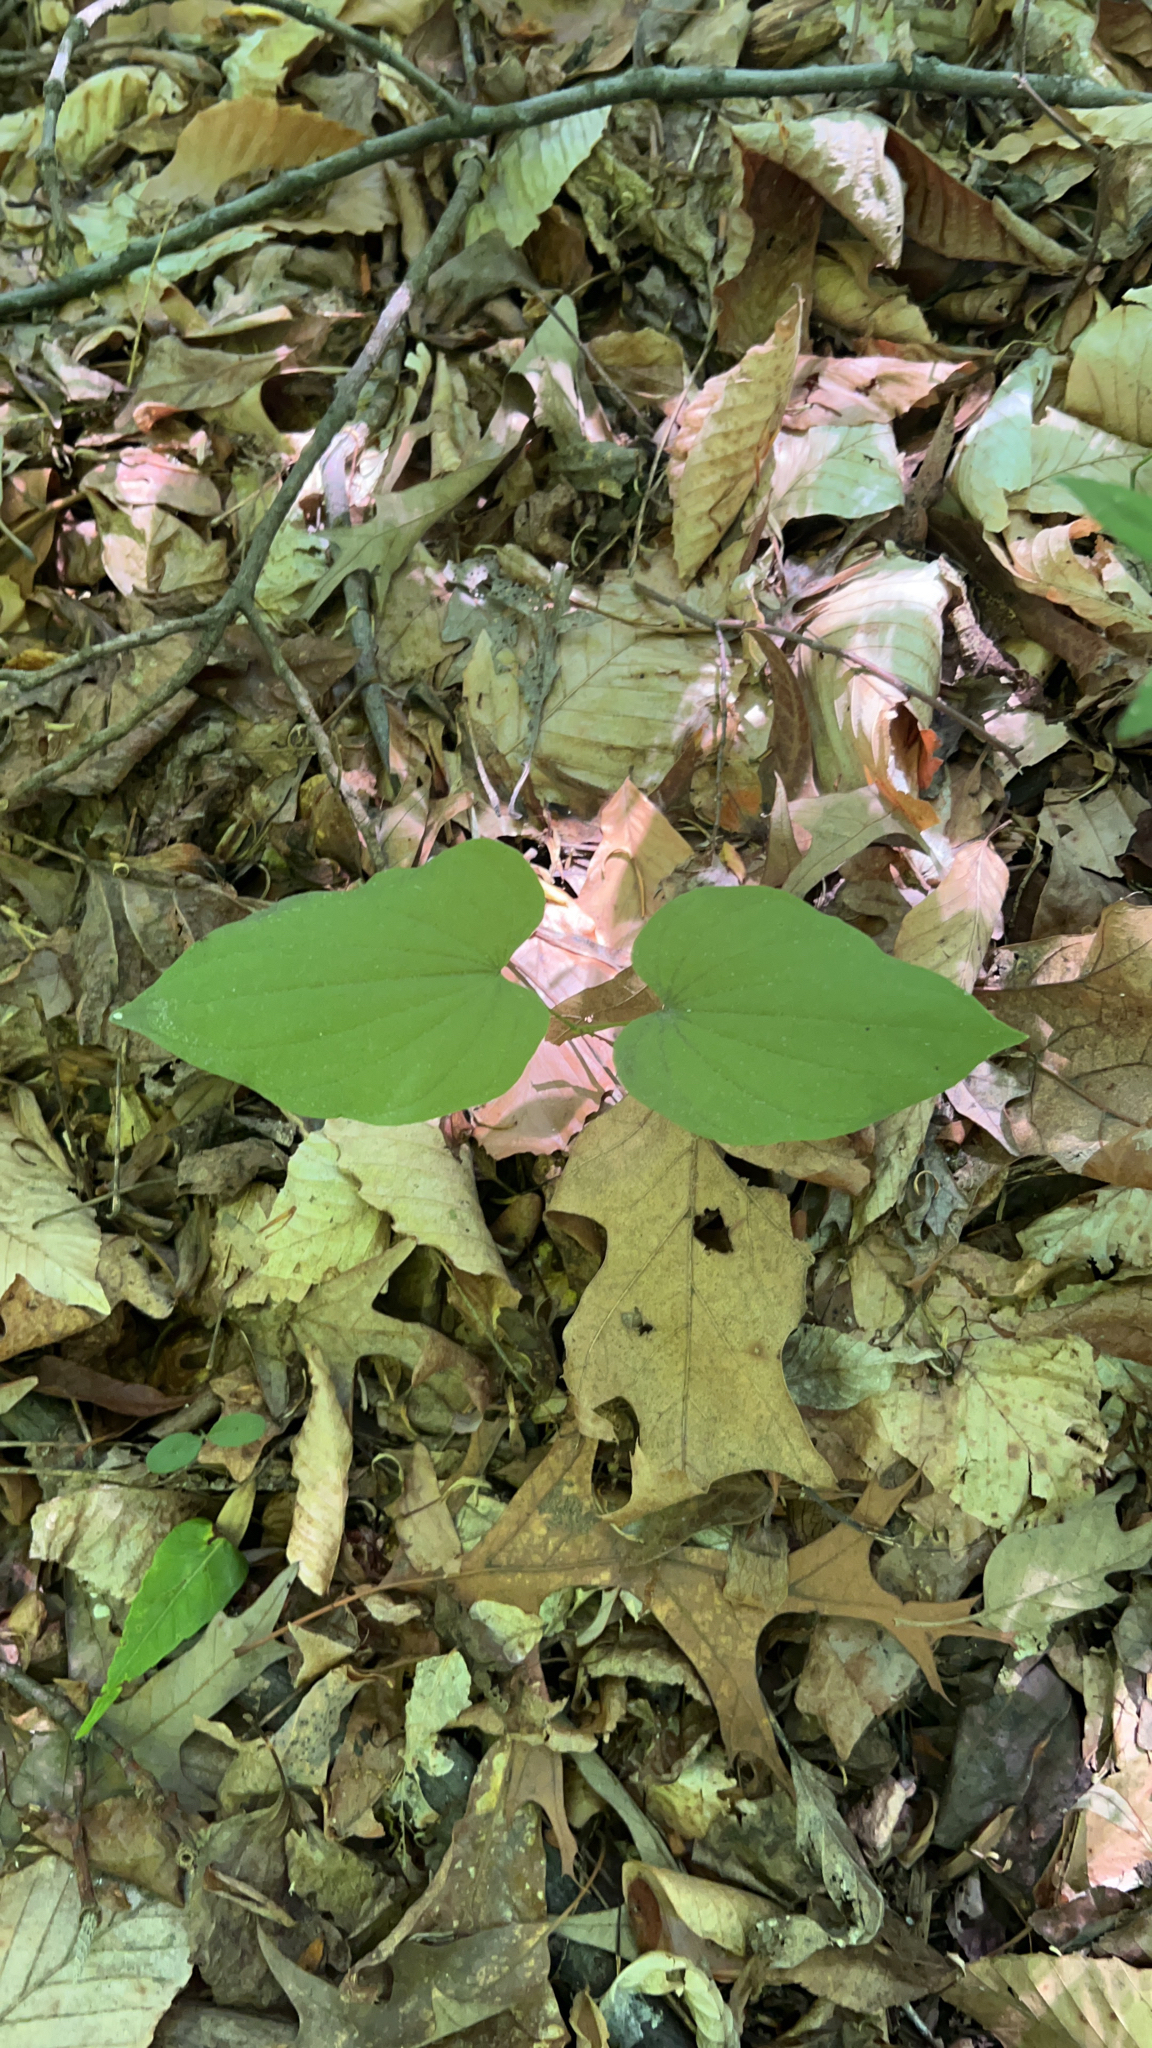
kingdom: Plantae
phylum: Tracheophyta
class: Liliopsida
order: Dioscoreales
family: Dioscoreaceae
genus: Dioscorea
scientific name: Dioscorea villosa
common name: Wild yam
